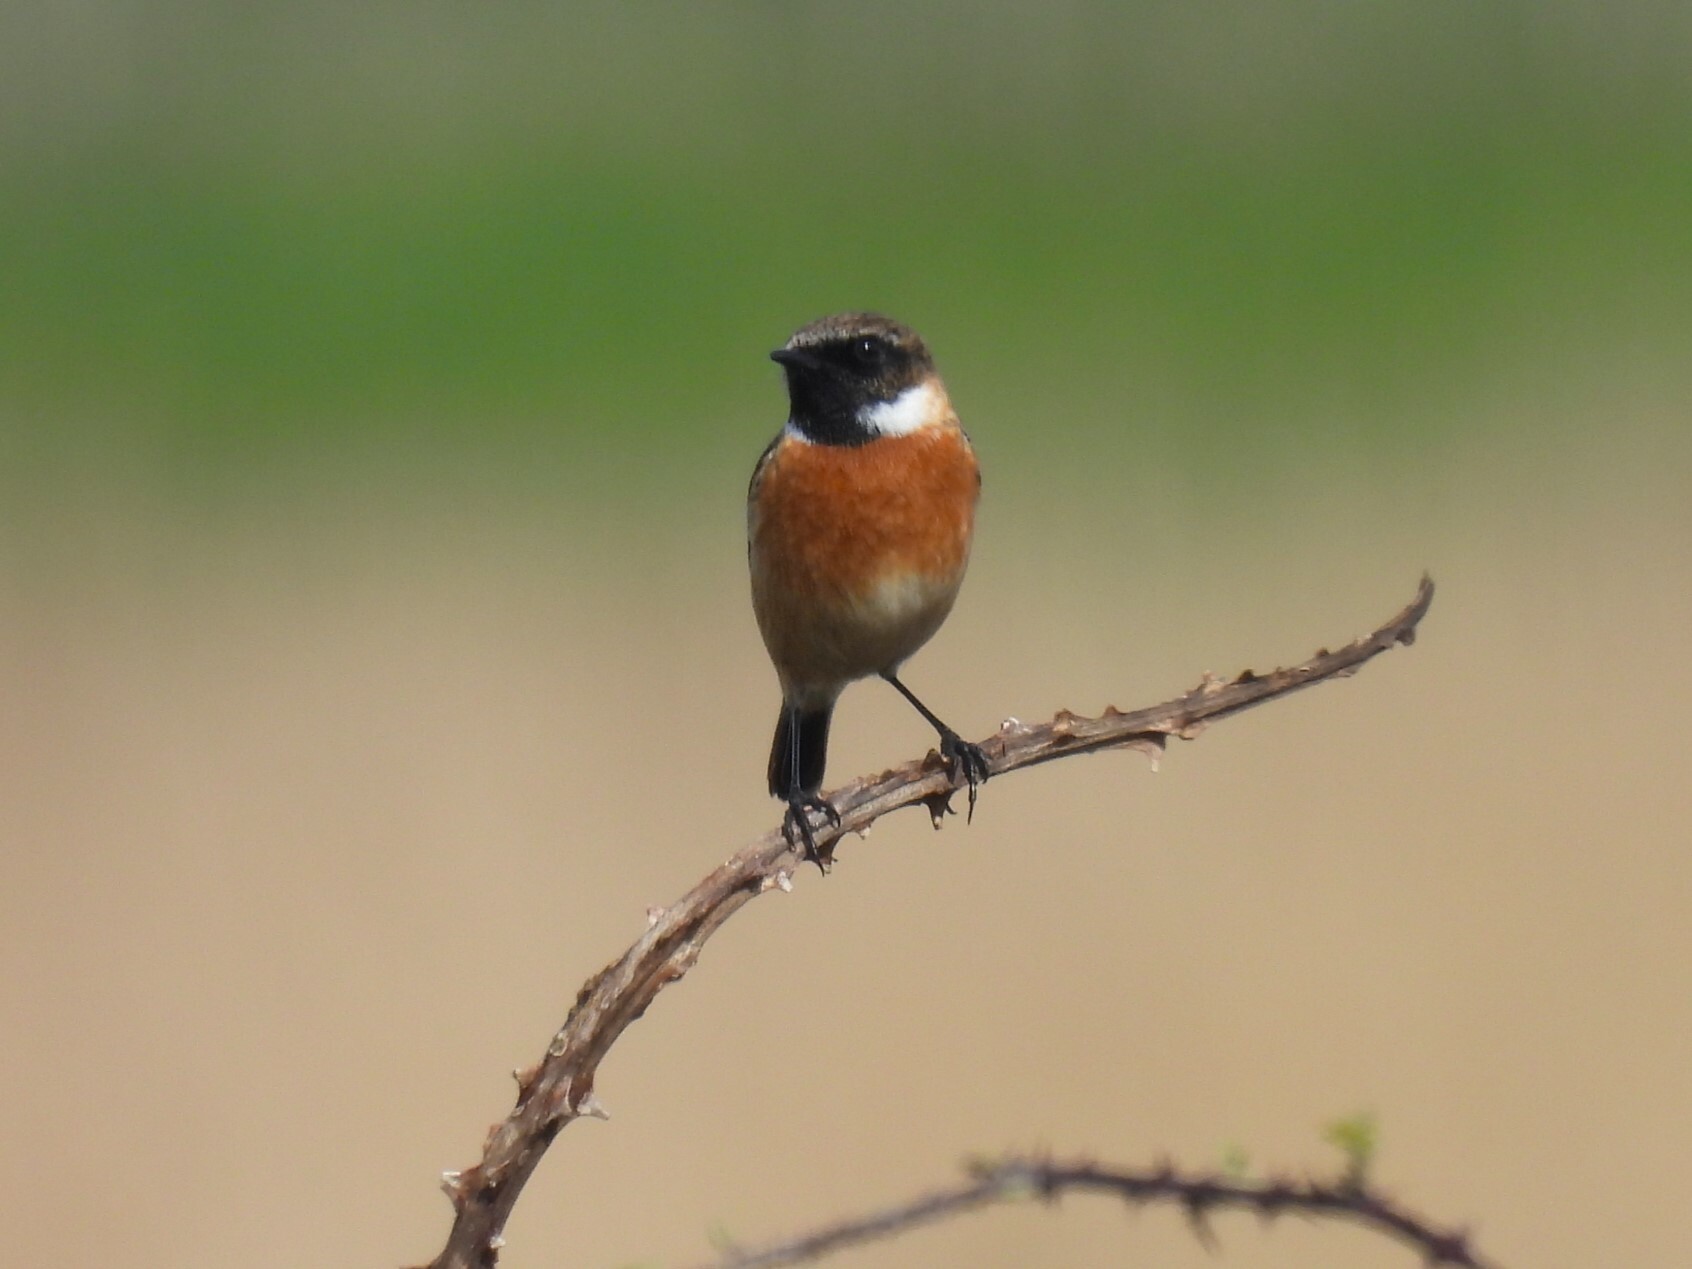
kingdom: Animalia
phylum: Chordata
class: Aves
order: Passeriformes
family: Muscicapidae
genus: Saxicola
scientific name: Saxicola rubicola
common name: European stonechat
